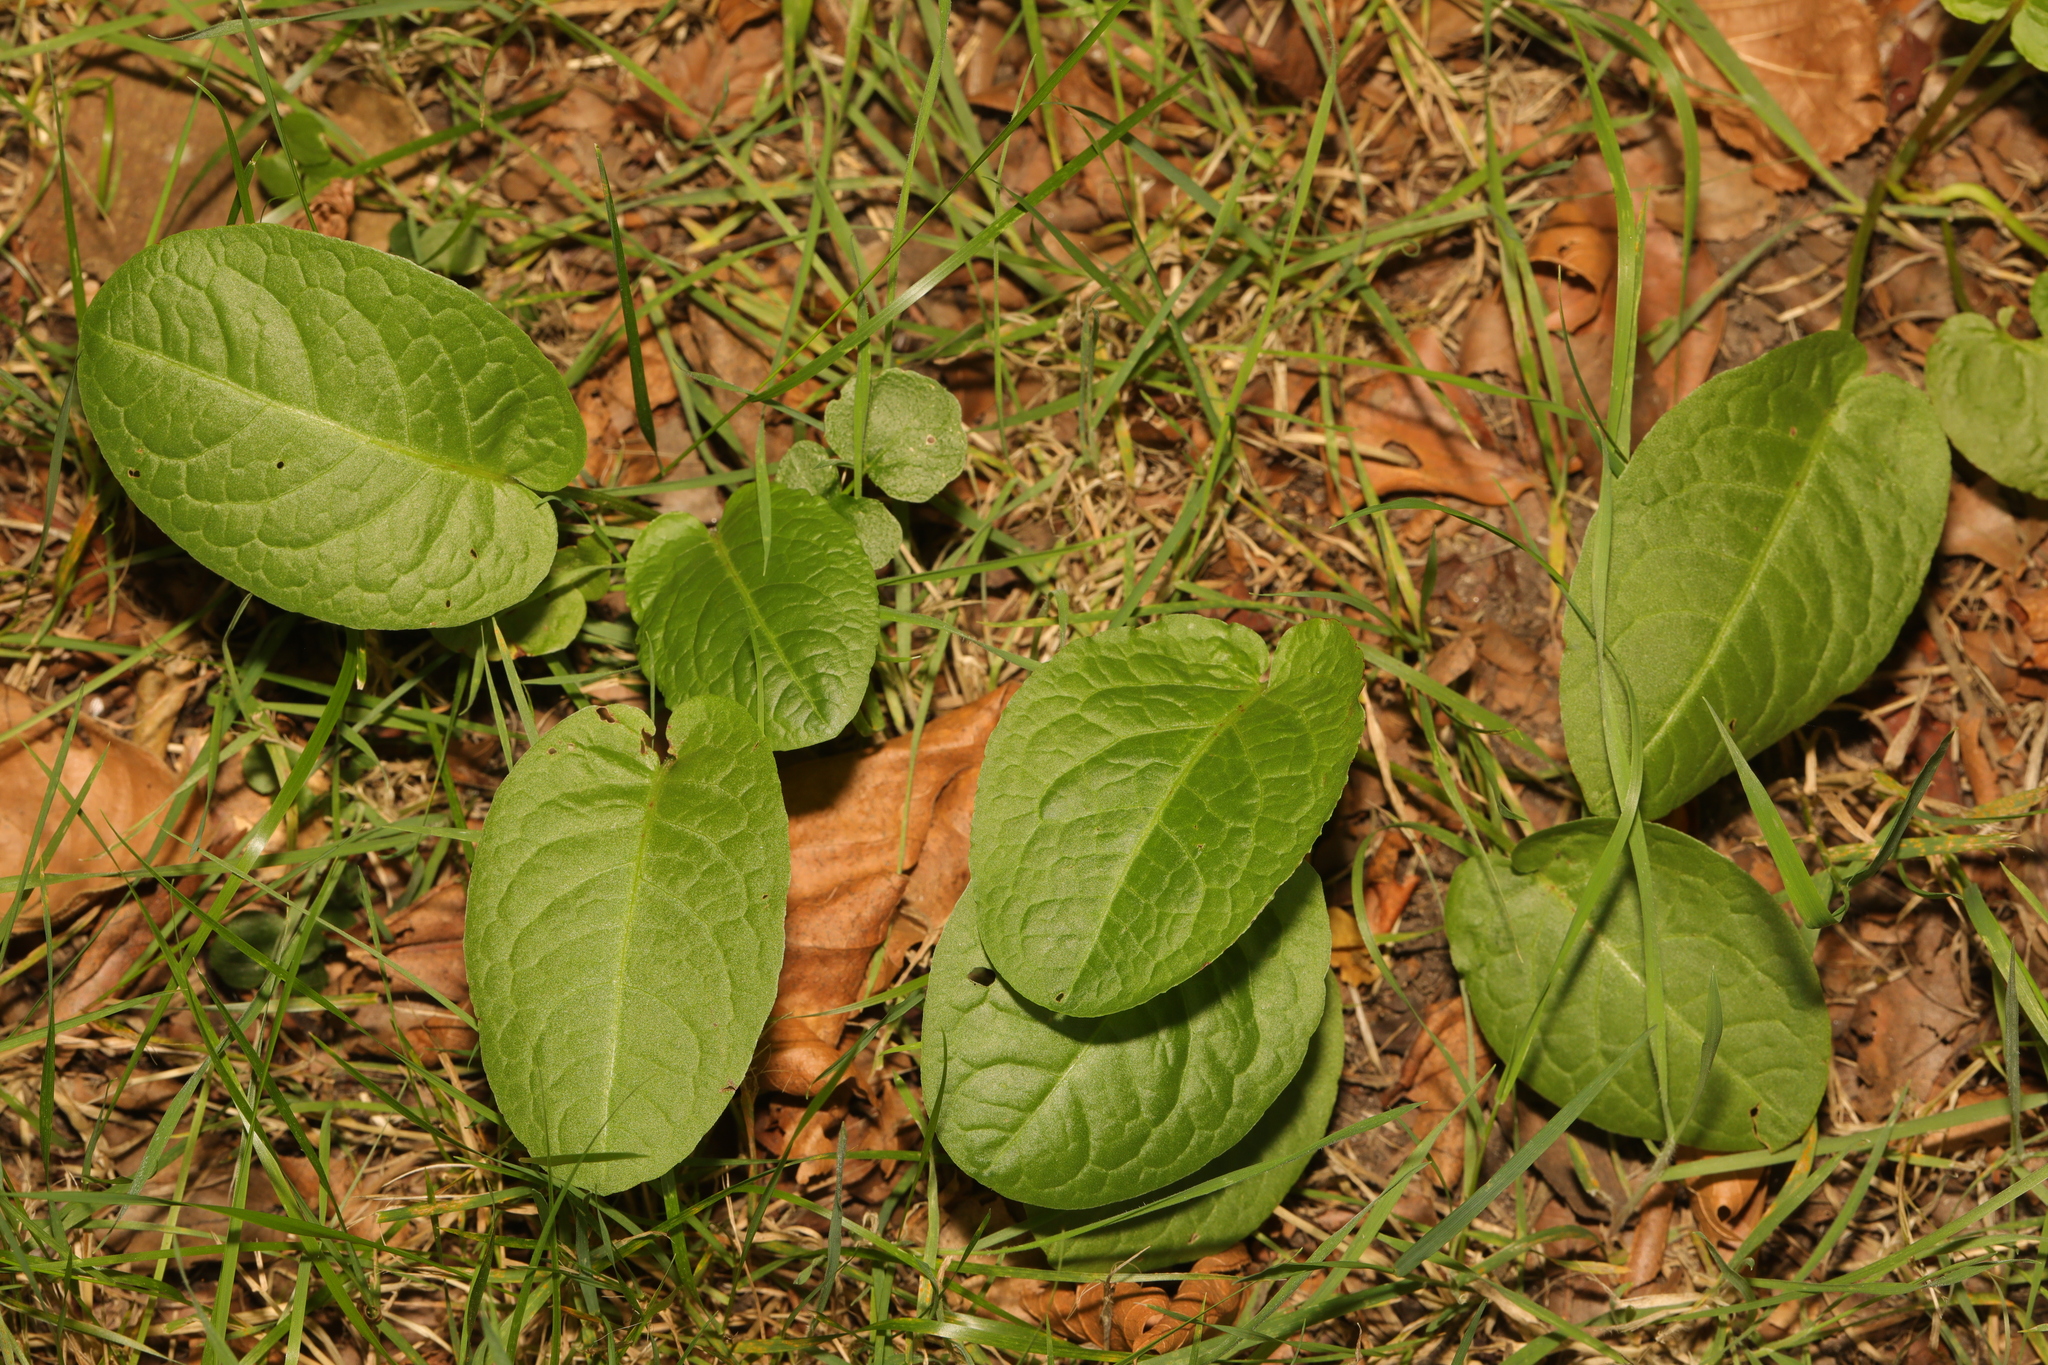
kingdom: Plantae
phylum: Tracheophyta
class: Magnoliopsida
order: Caryophyllales
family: Polygonaceae
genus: Rumex
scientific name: Rumex obtusifolius
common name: Bitter dock
